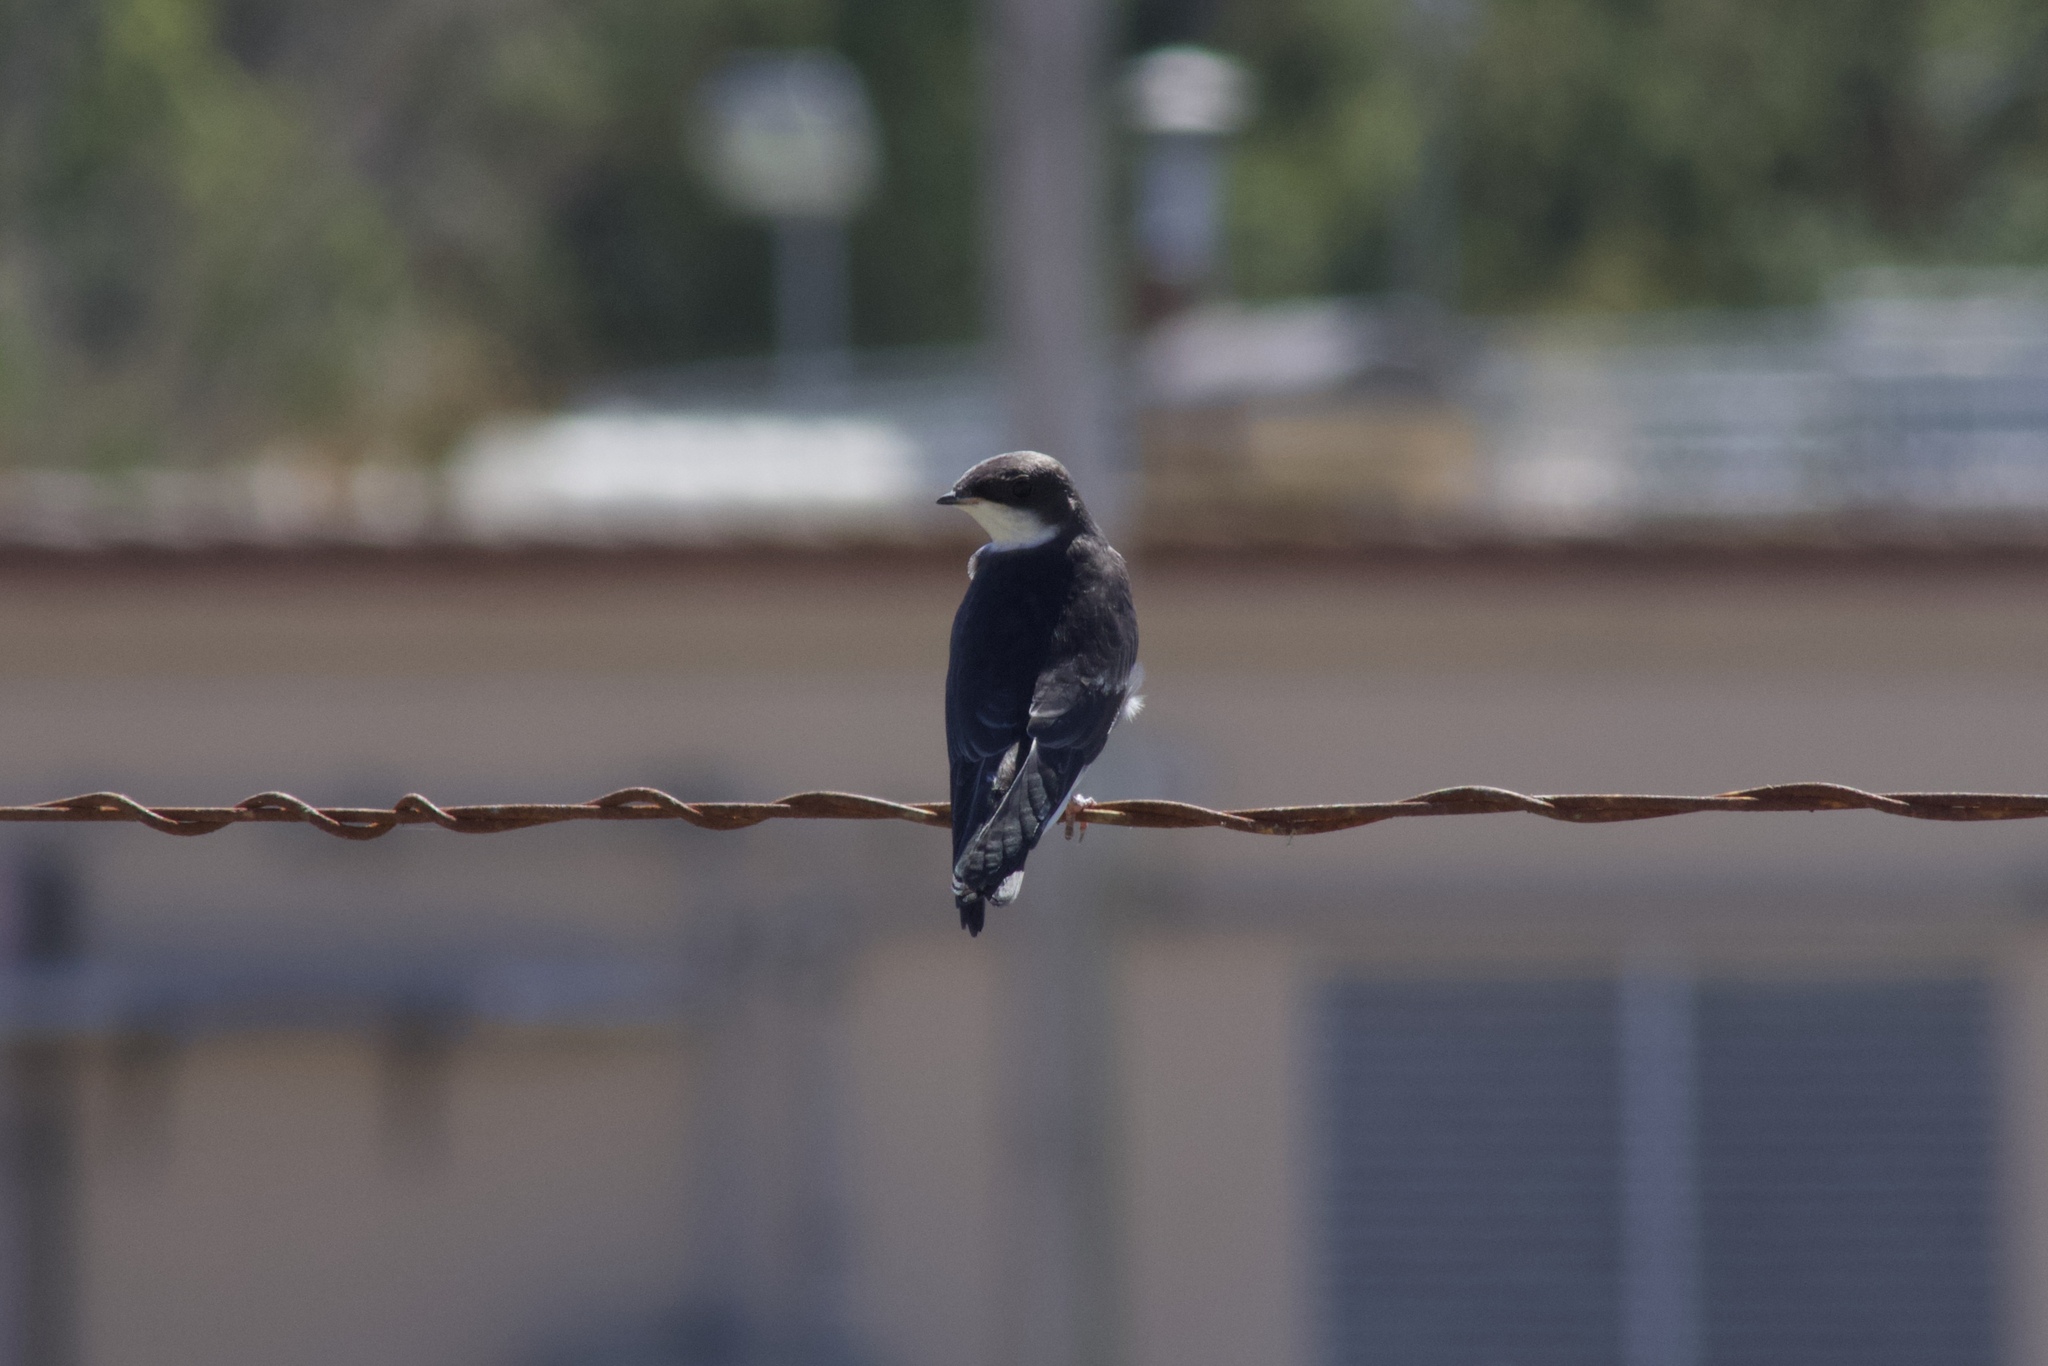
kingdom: Animalia
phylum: Chordata
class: Aves
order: Passeriformes
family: Hirundinidae
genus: Tachycineta
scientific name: Tachycineta bicolor
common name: Tree swallow
